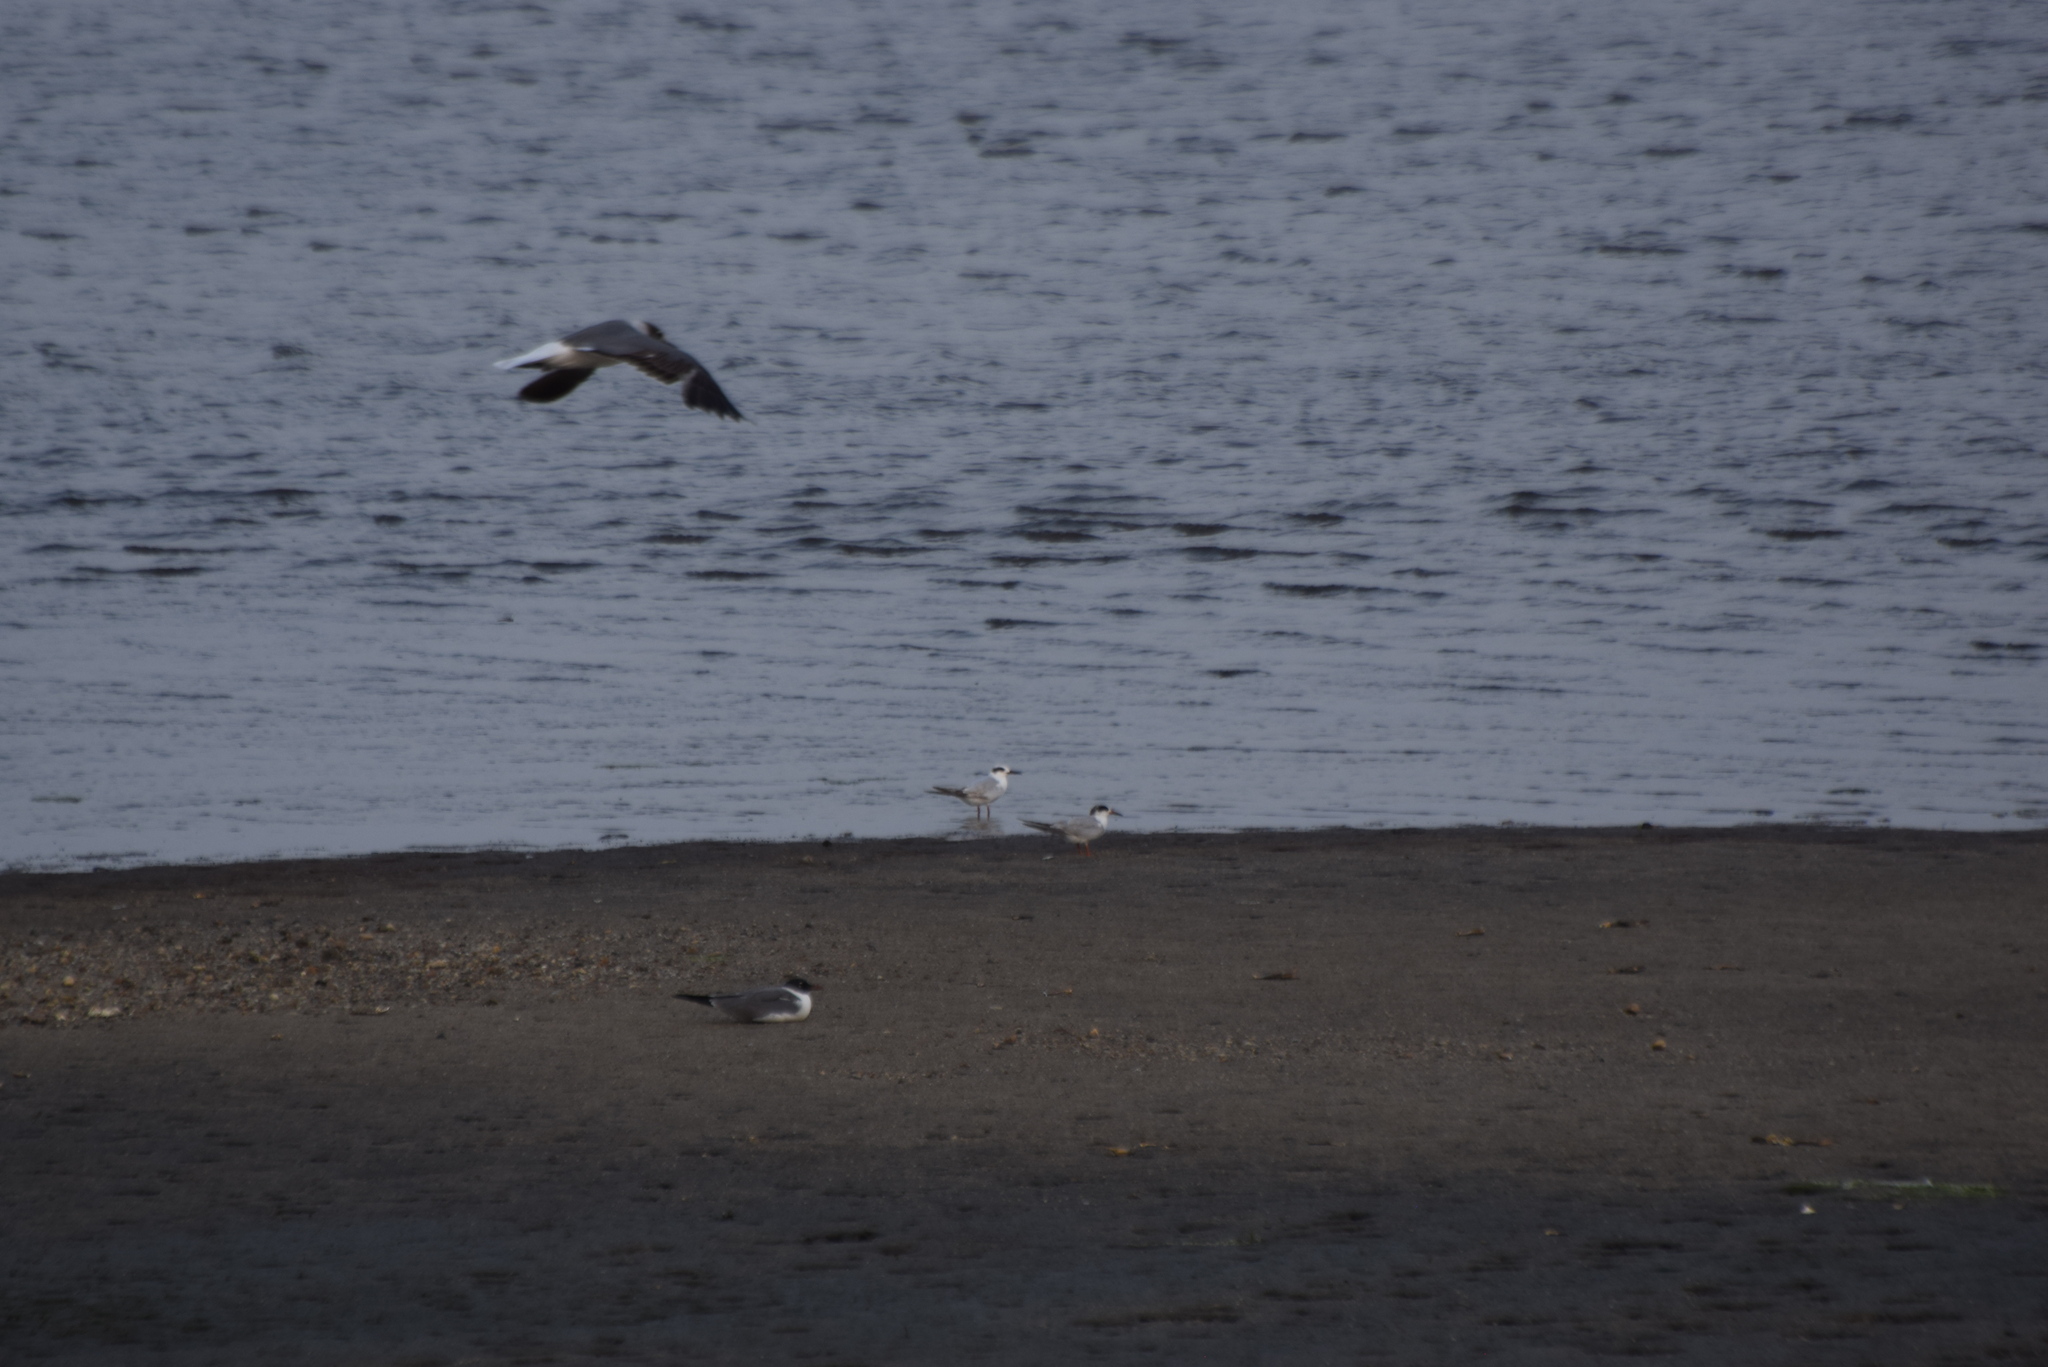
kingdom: Animalia
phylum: Chordata
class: Aves
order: Charadriiformes
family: Laridae
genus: Sterna
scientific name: Sterna forsteri
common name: Forster's tern
